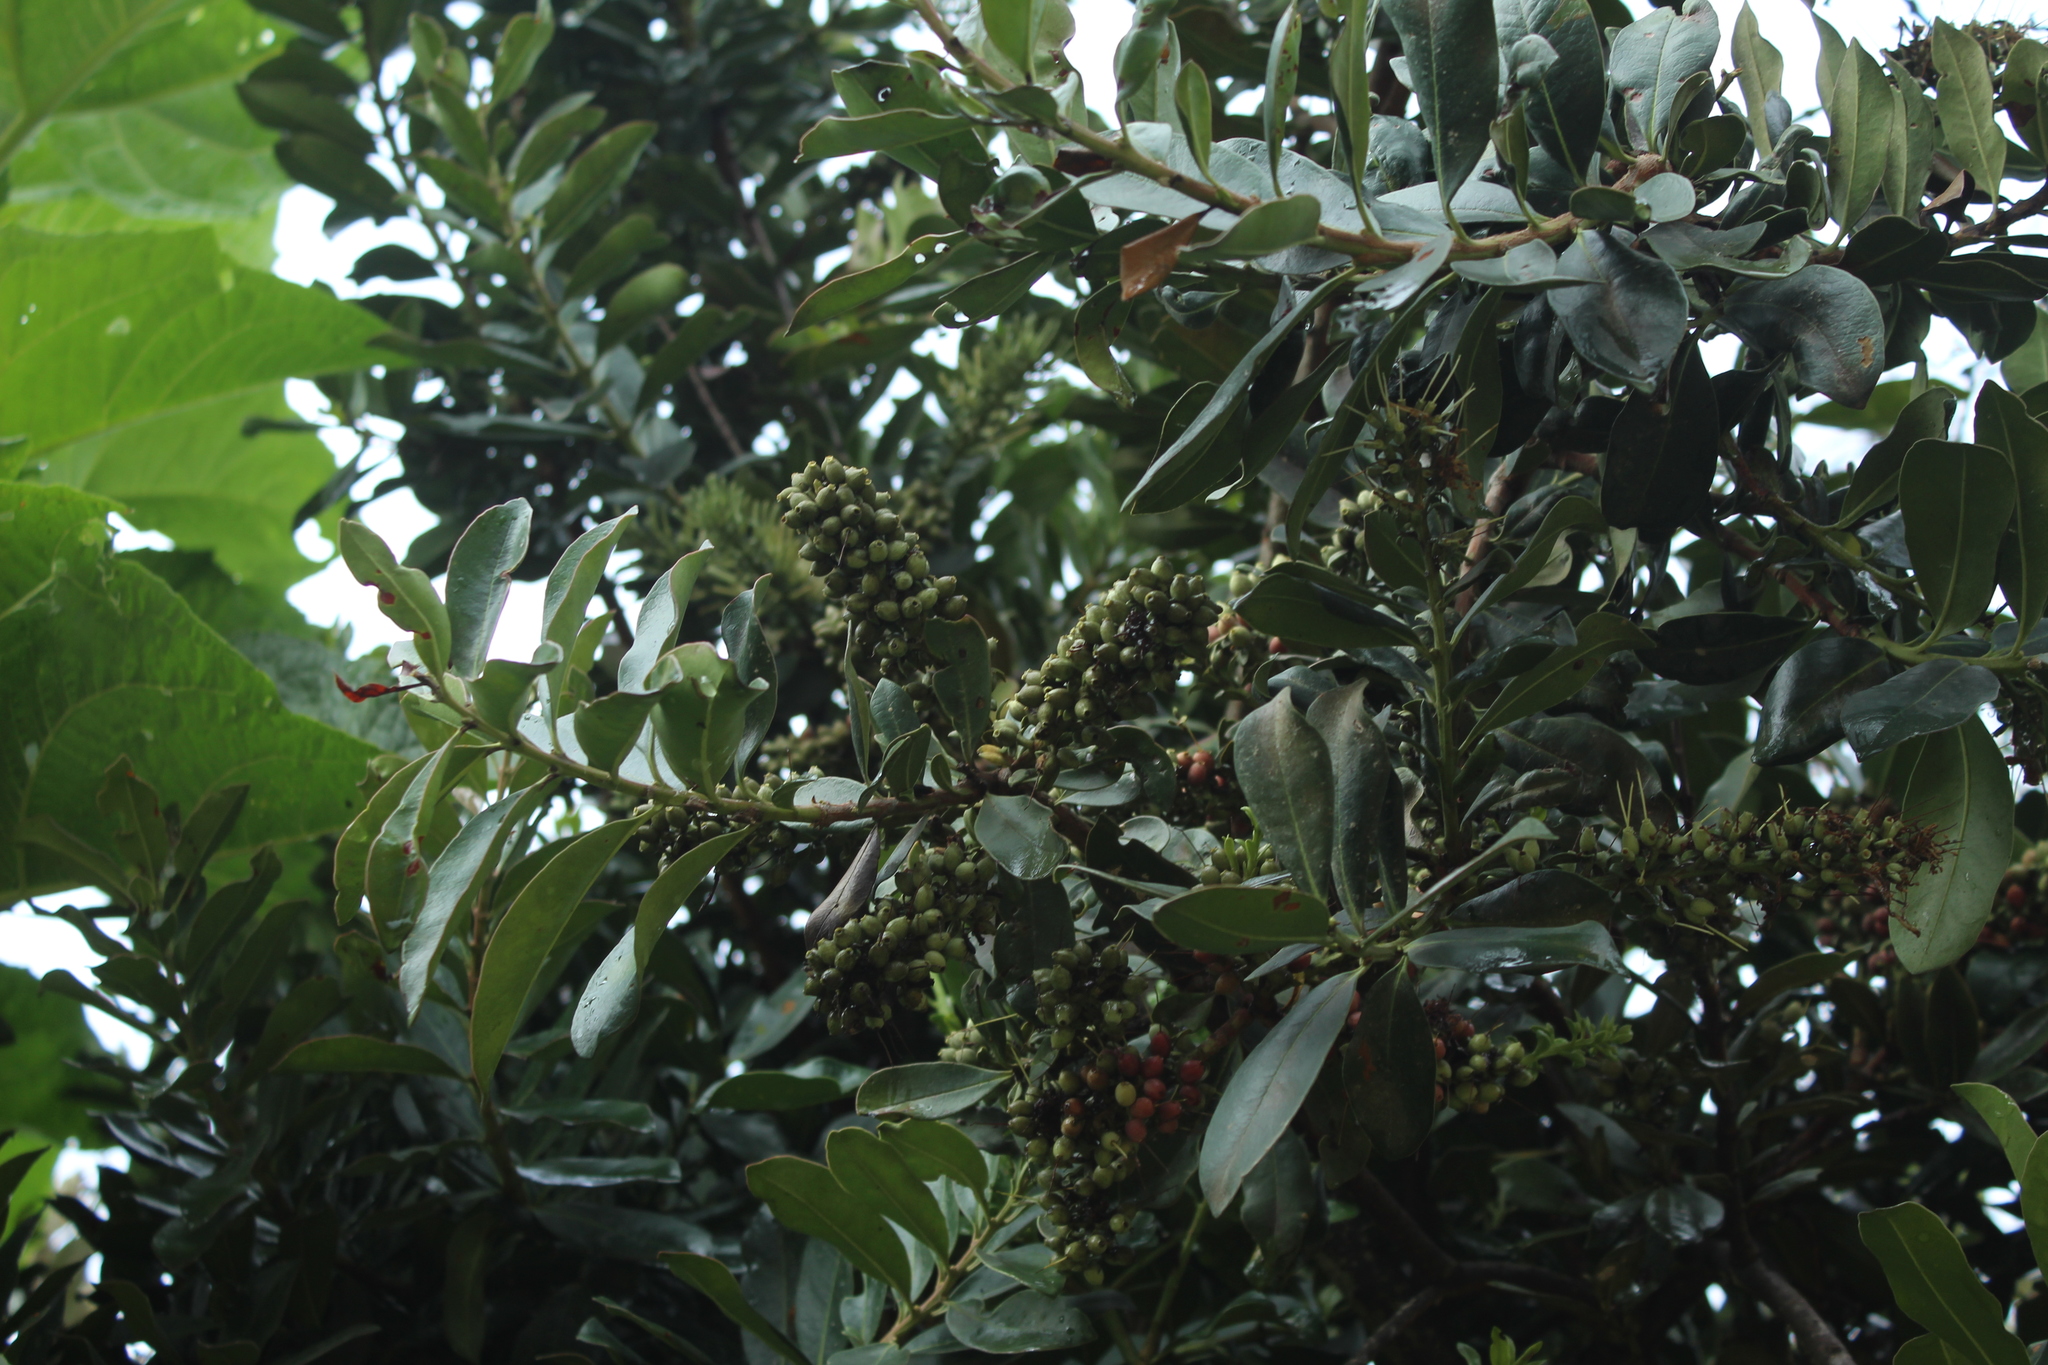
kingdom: Plantae
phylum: Tracheophyta
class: Magnoliopsida
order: Santalales
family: Loranthaceae
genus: Gaiadendron
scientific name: Gaiadendron punctatum
